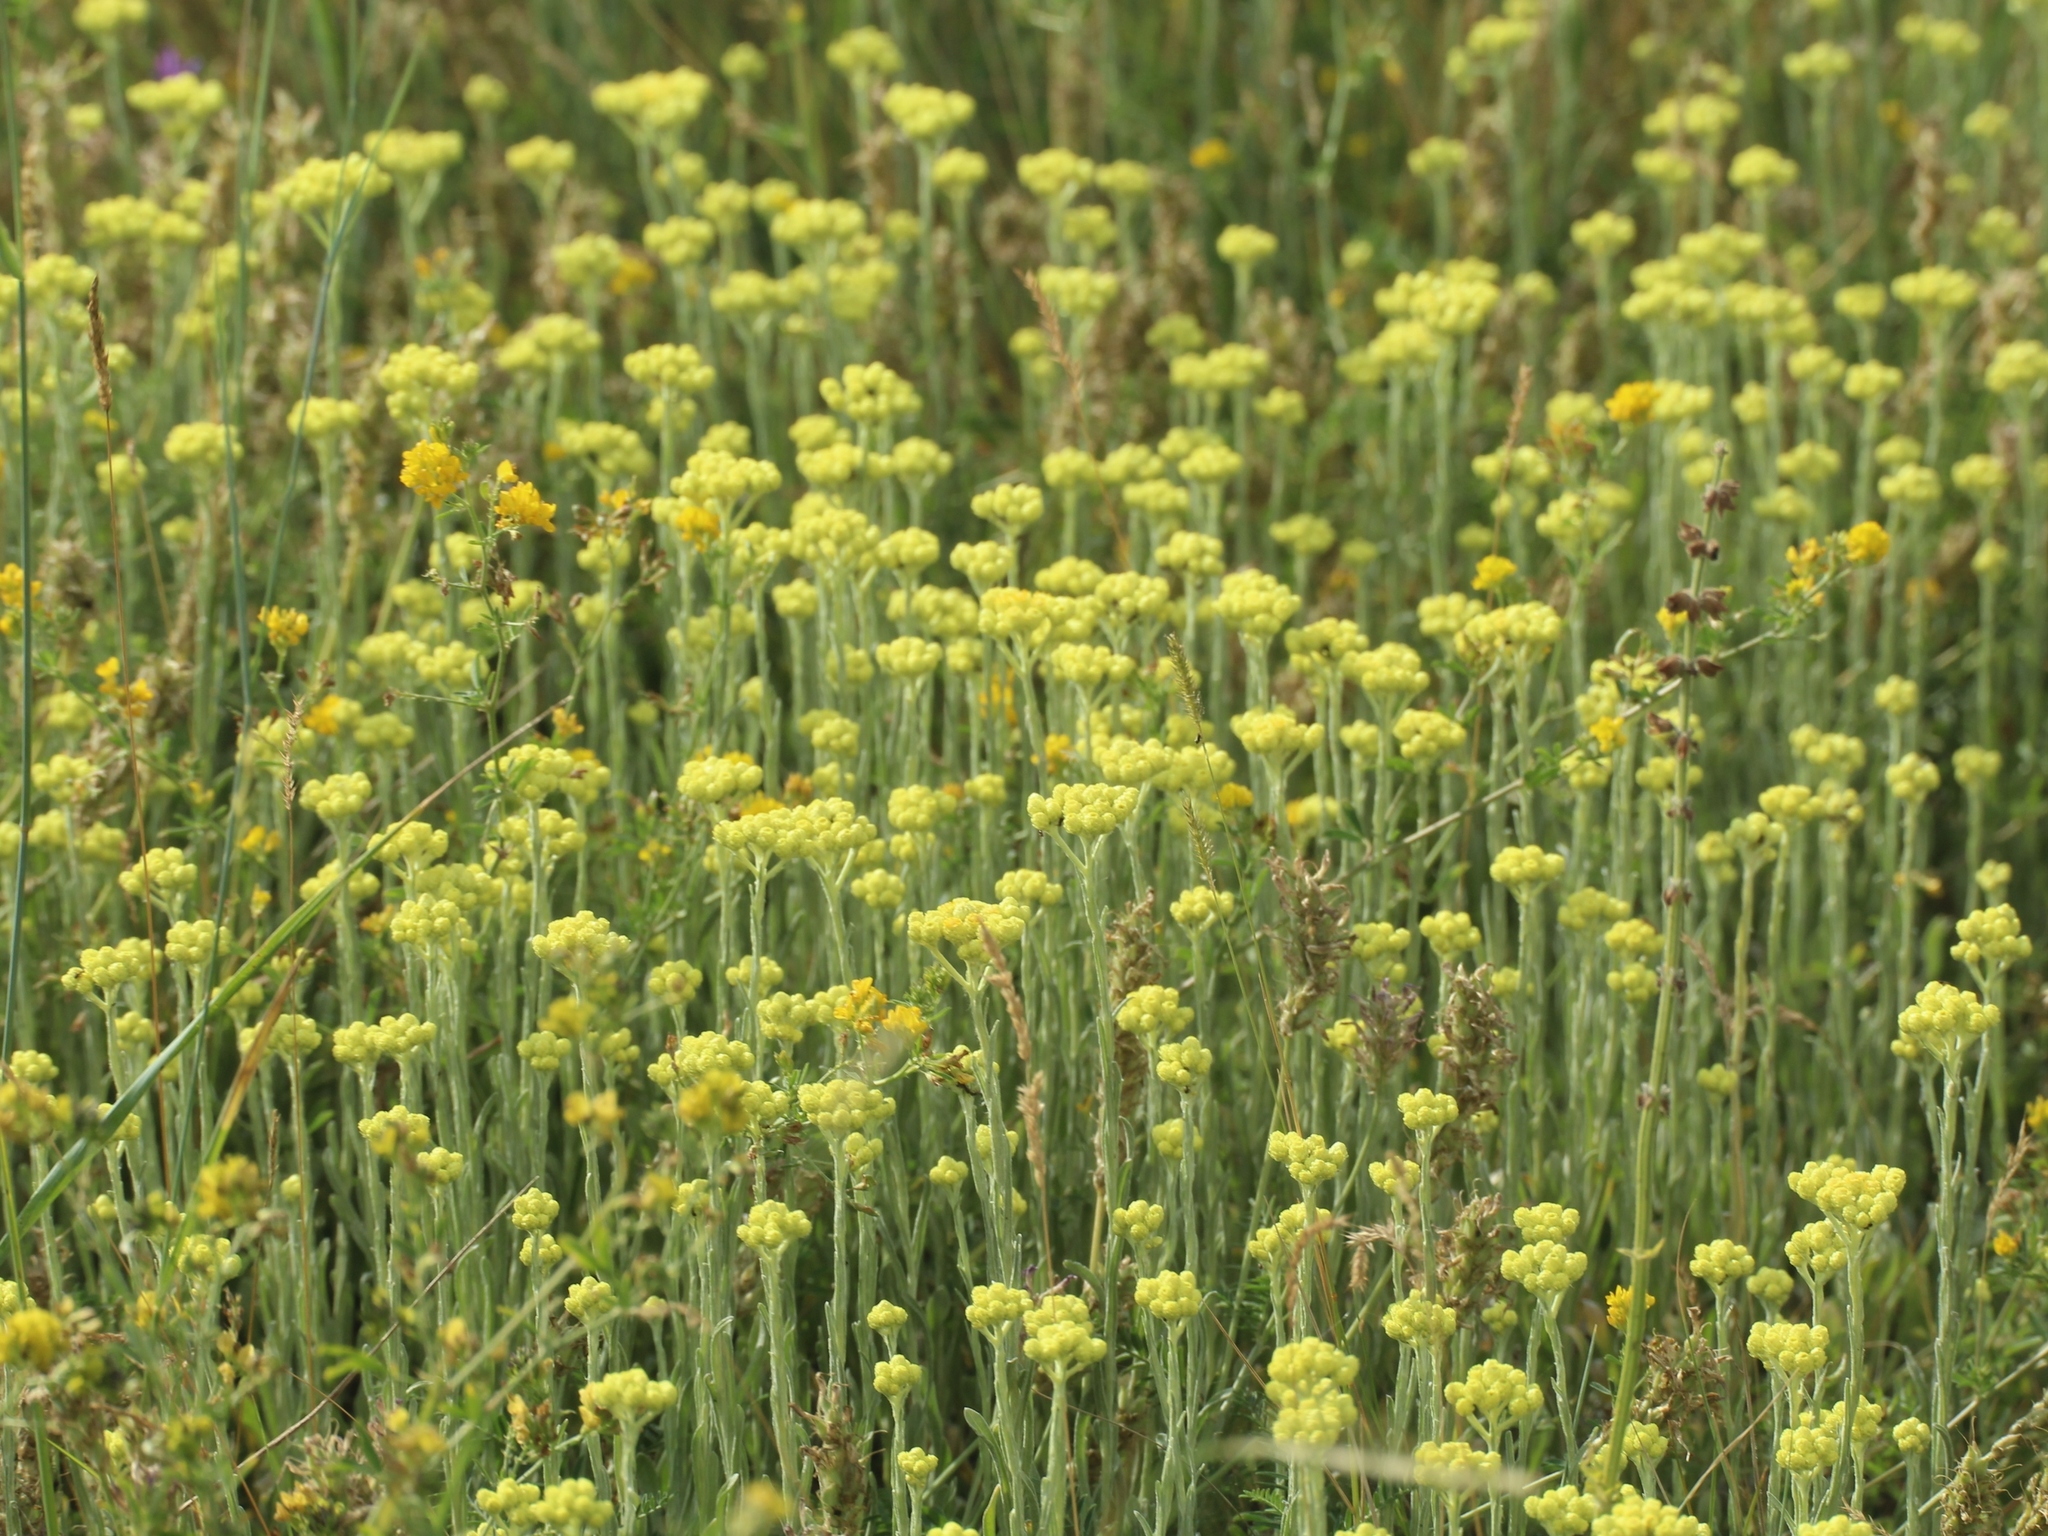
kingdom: Plantae
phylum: Tracheophyta
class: Magnoliopsida
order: Asterales
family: Asteraceae
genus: Helichrysum
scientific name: Helichrysum arenarium
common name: Strawflower
